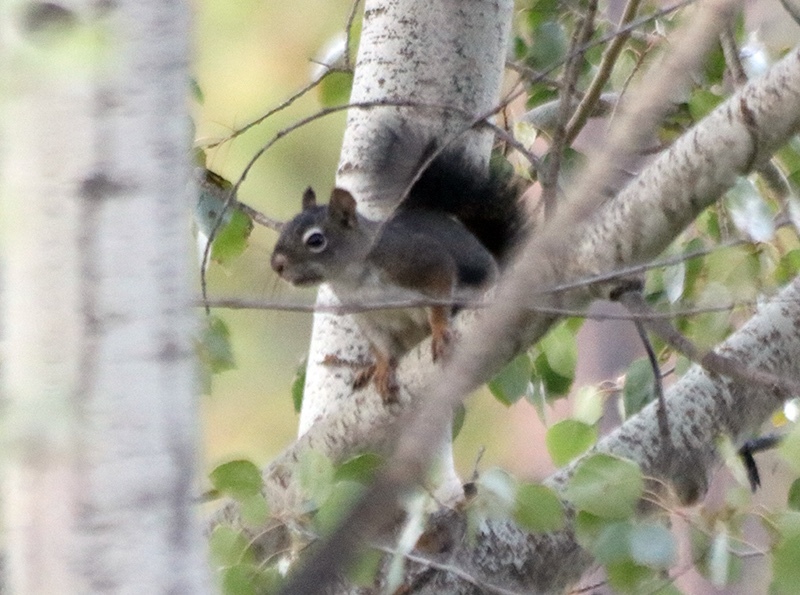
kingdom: Animalia
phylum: Chordata
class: Mammalia
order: Rodentia
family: Sciuridae
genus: Tamiasciurus
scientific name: Tamiasciurus hudsonicus
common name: Red squirrel
